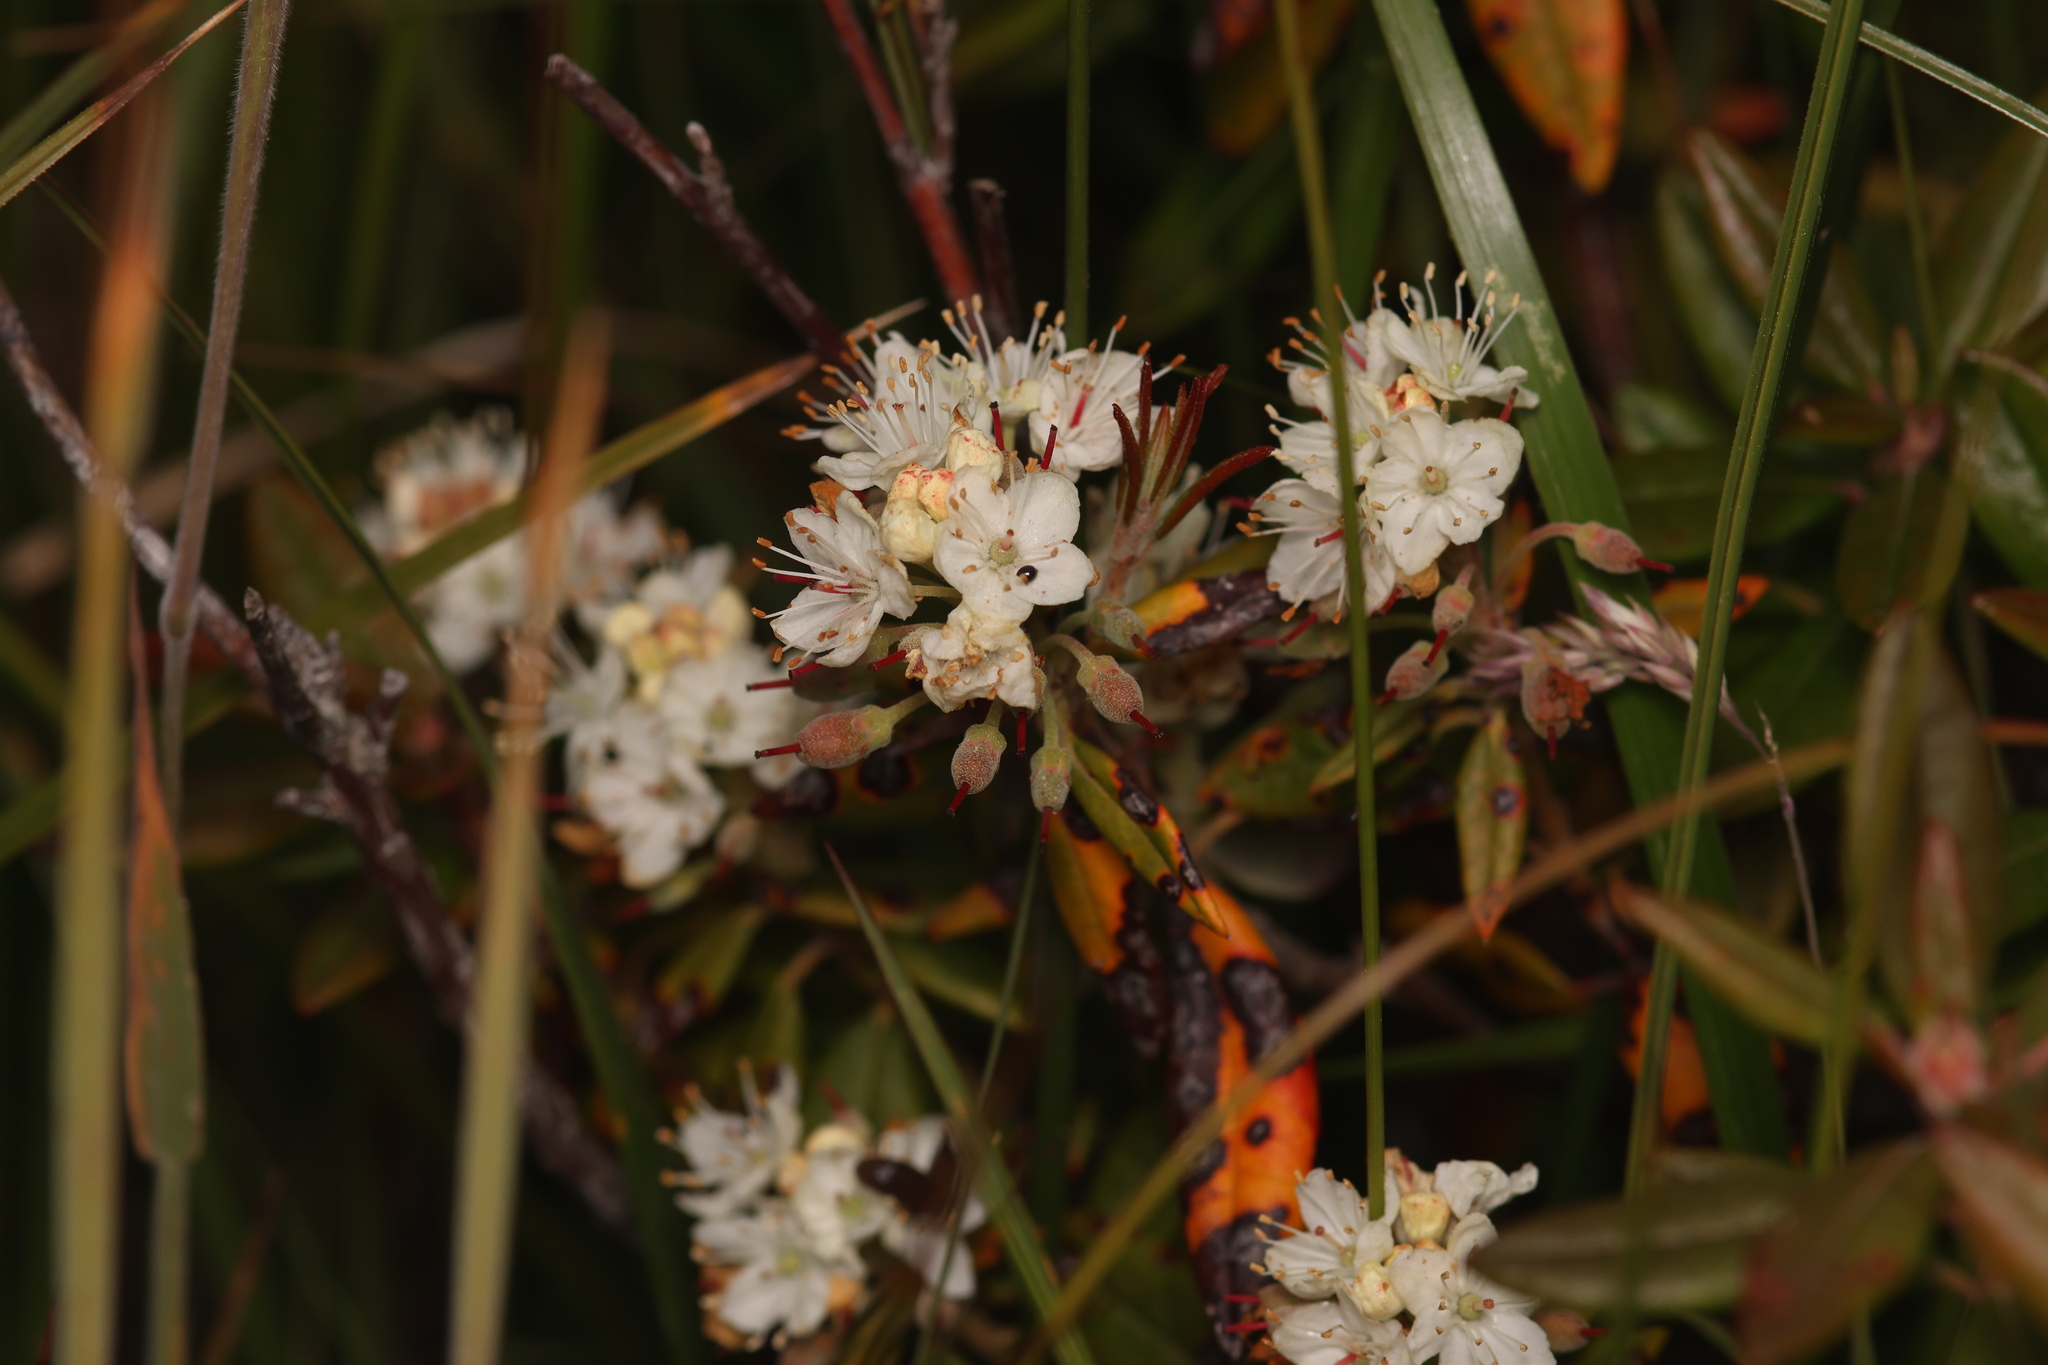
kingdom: Plantae
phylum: Tracheophyta
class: Magnoliopsida
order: Ericales
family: Ericaceae
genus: Rhododendron
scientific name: Rhododendron columbianum
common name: Western labrador tea
